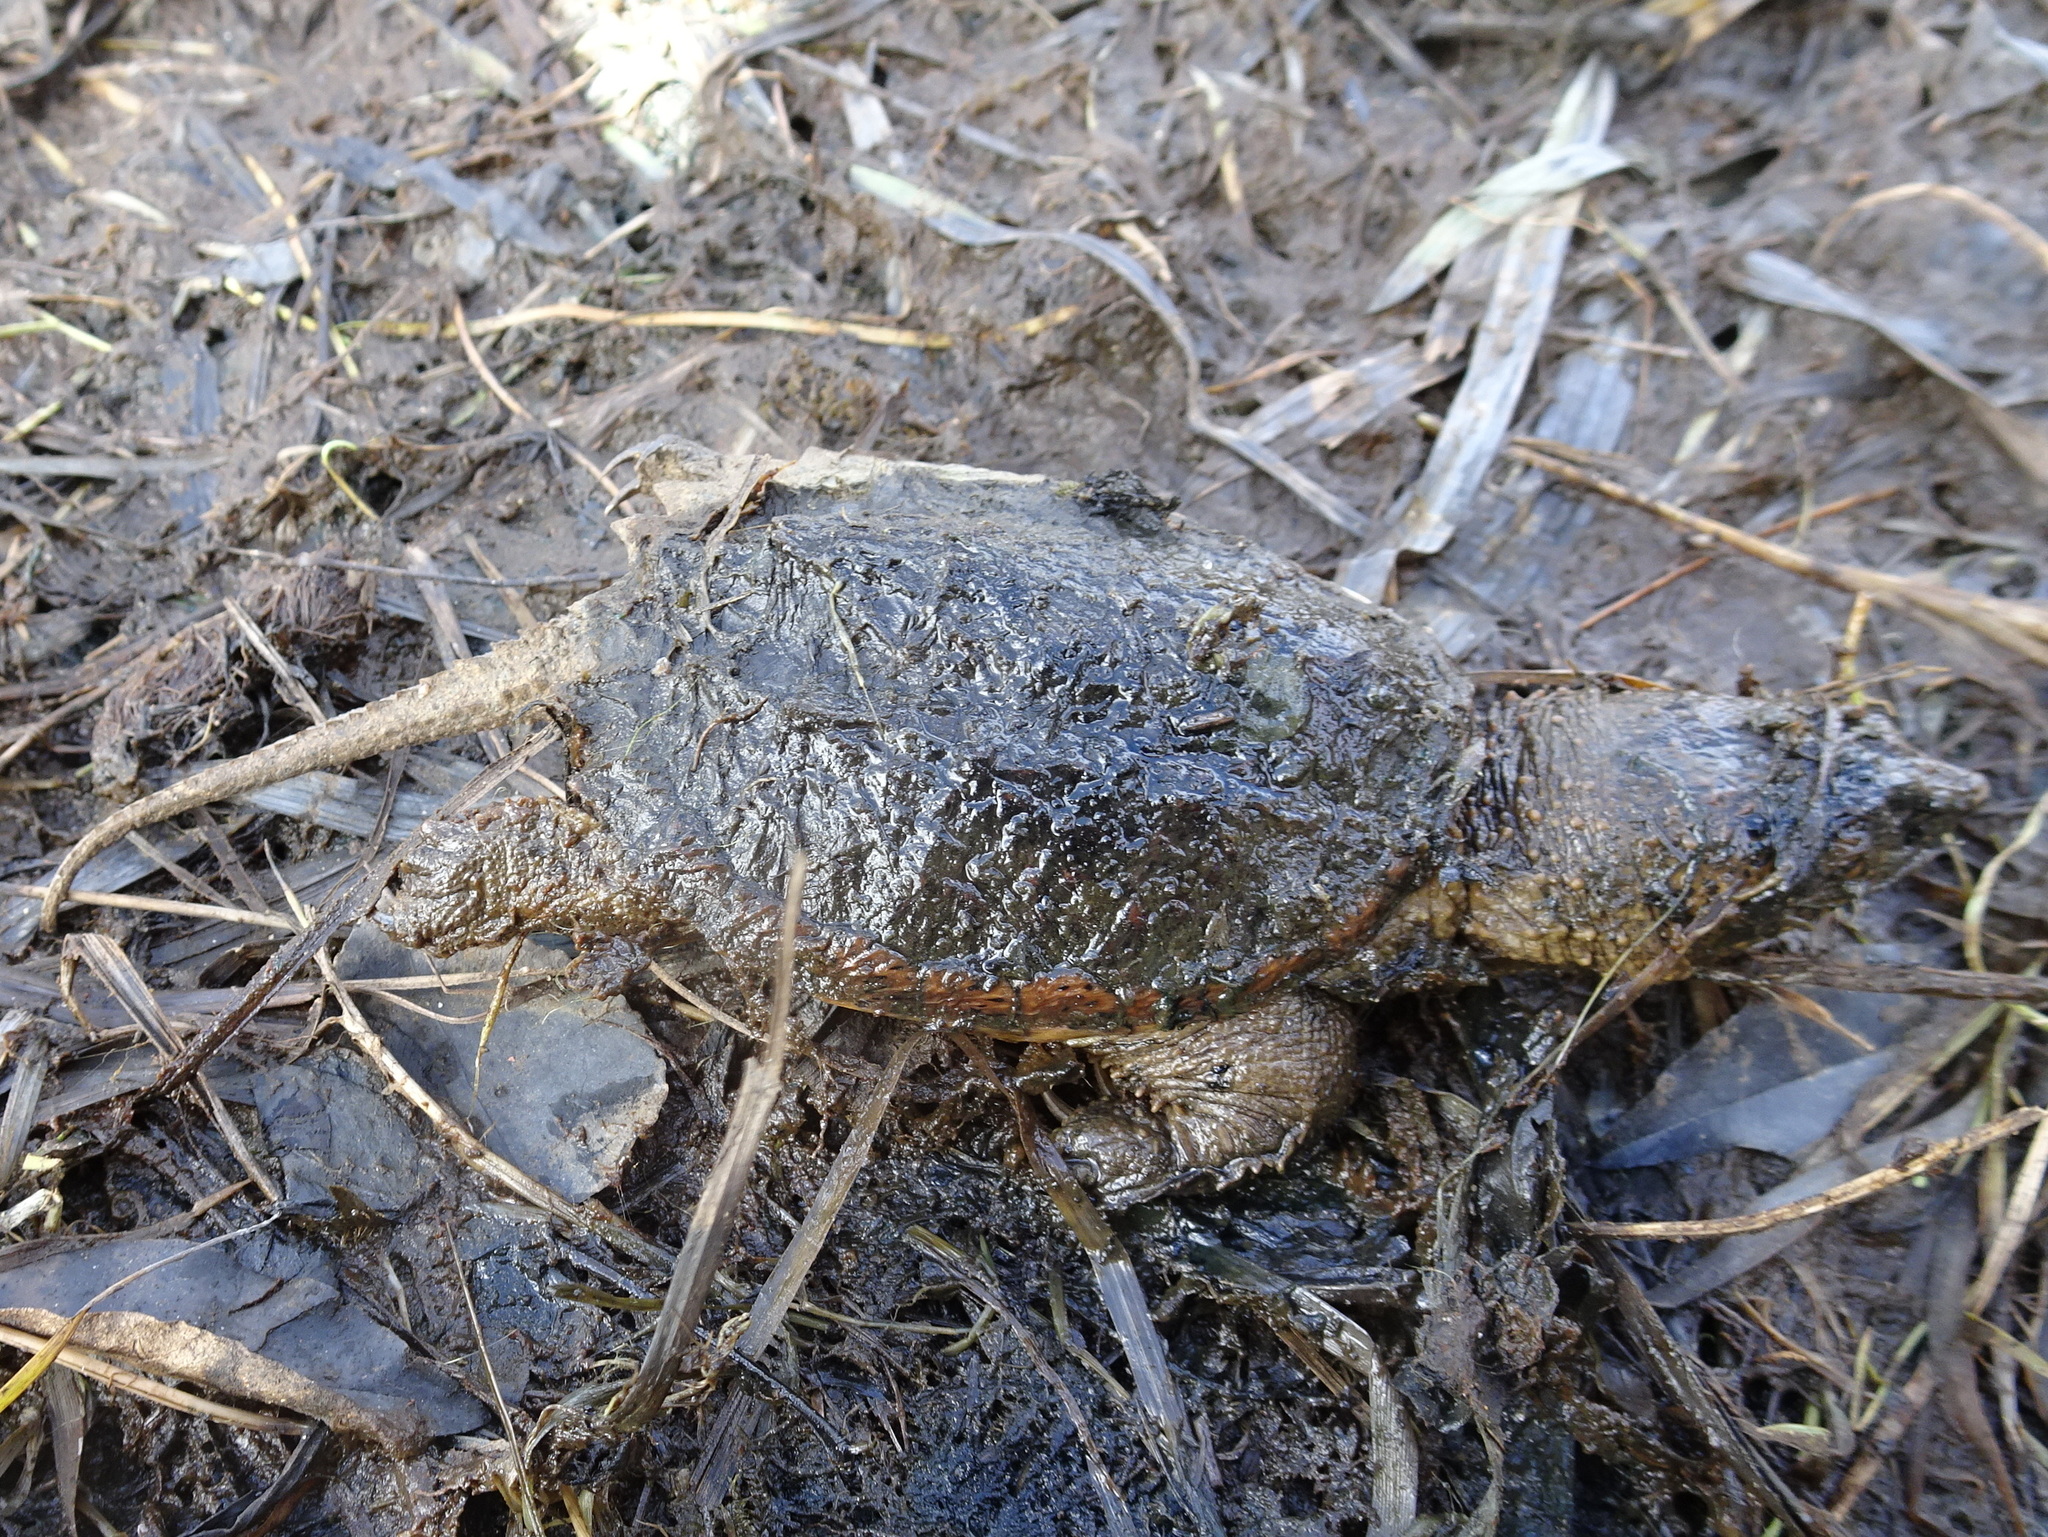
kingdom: Animalia
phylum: Chordata
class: Testudines
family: Chelydridae
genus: Chelydra
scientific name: Chelydra serpentina
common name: Common snapping turtle
